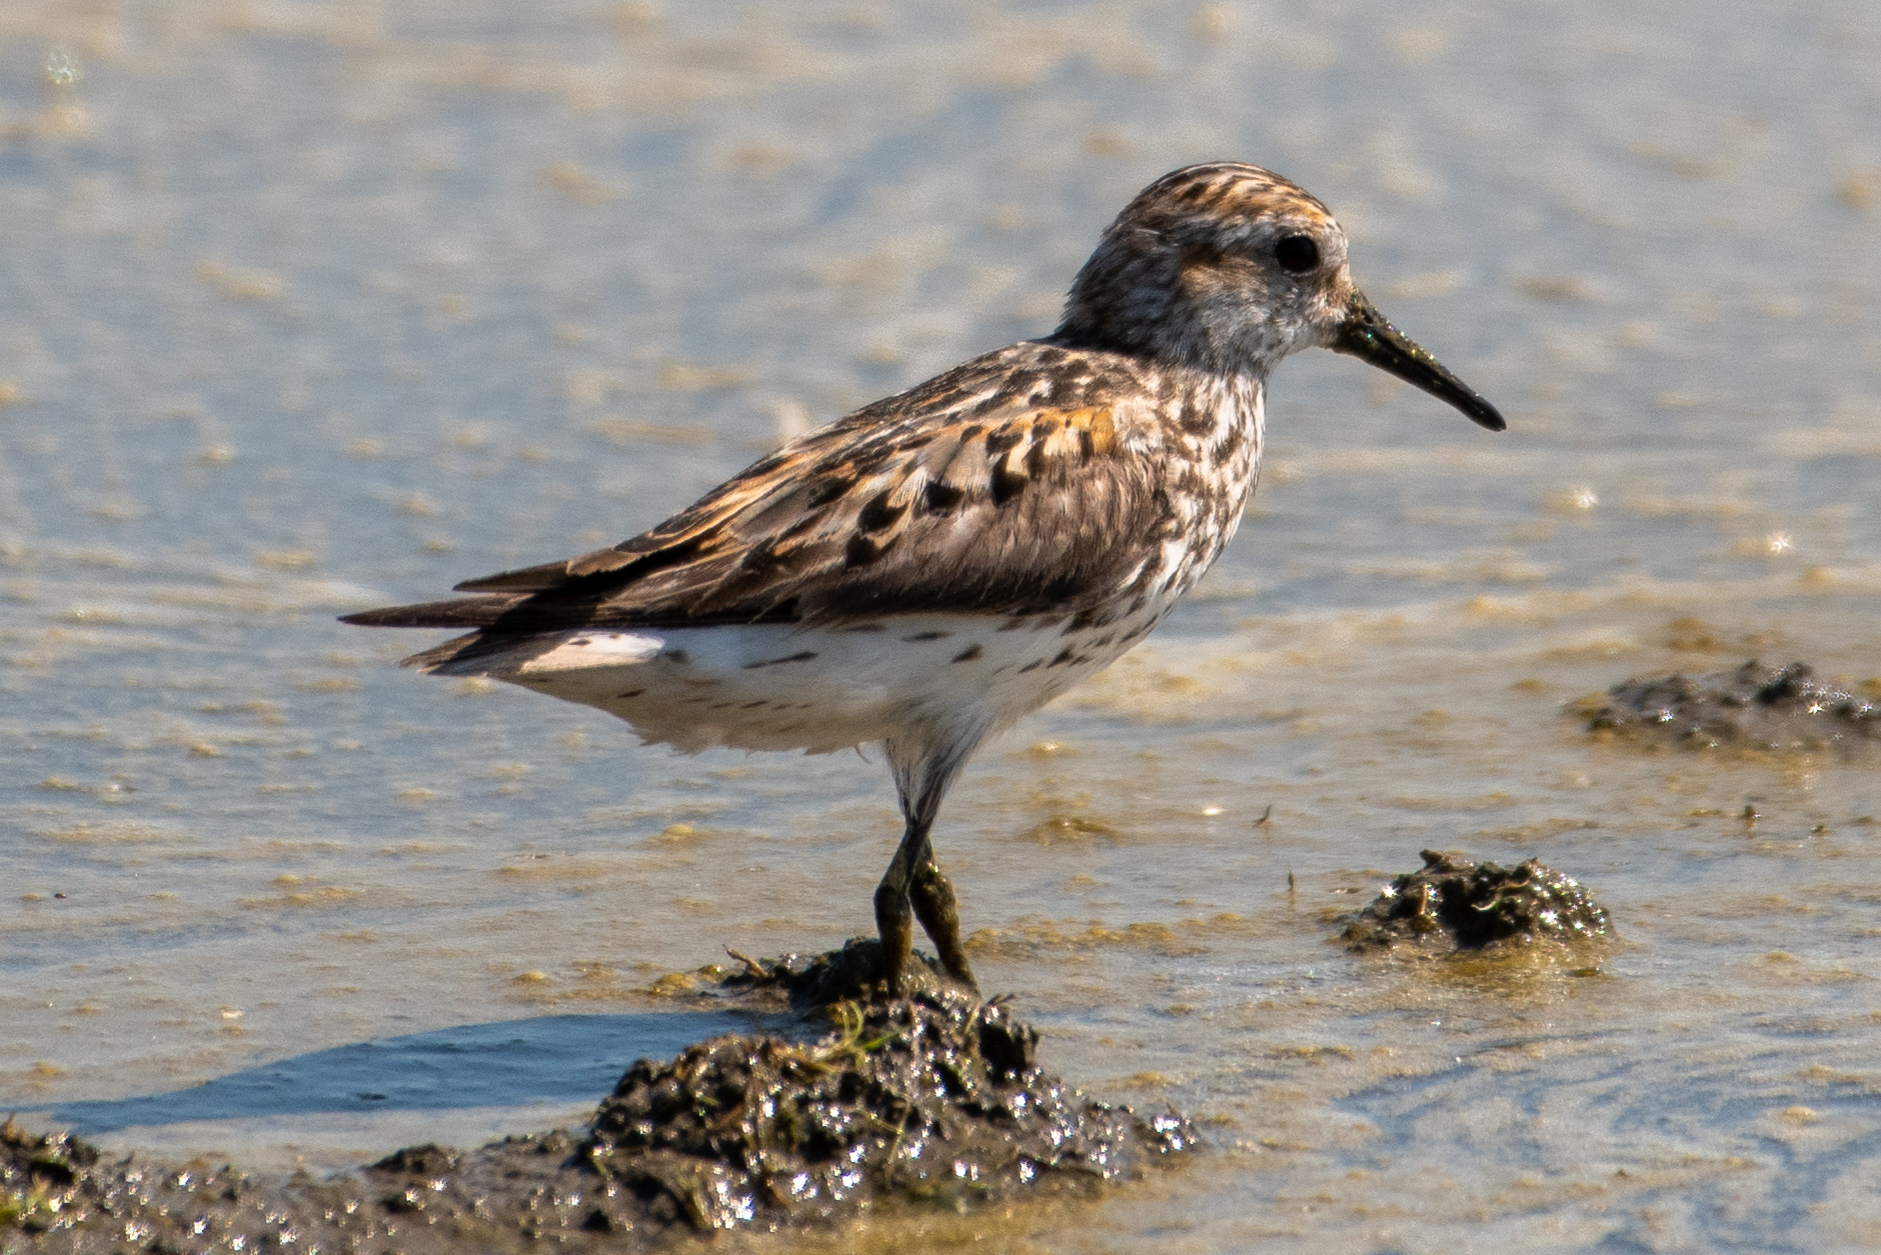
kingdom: Animalia
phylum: Chordata
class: Aves
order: Charadriiformes
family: Scolopacidae
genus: Calidris
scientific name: Calidris mauri
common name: Western sandpiper
